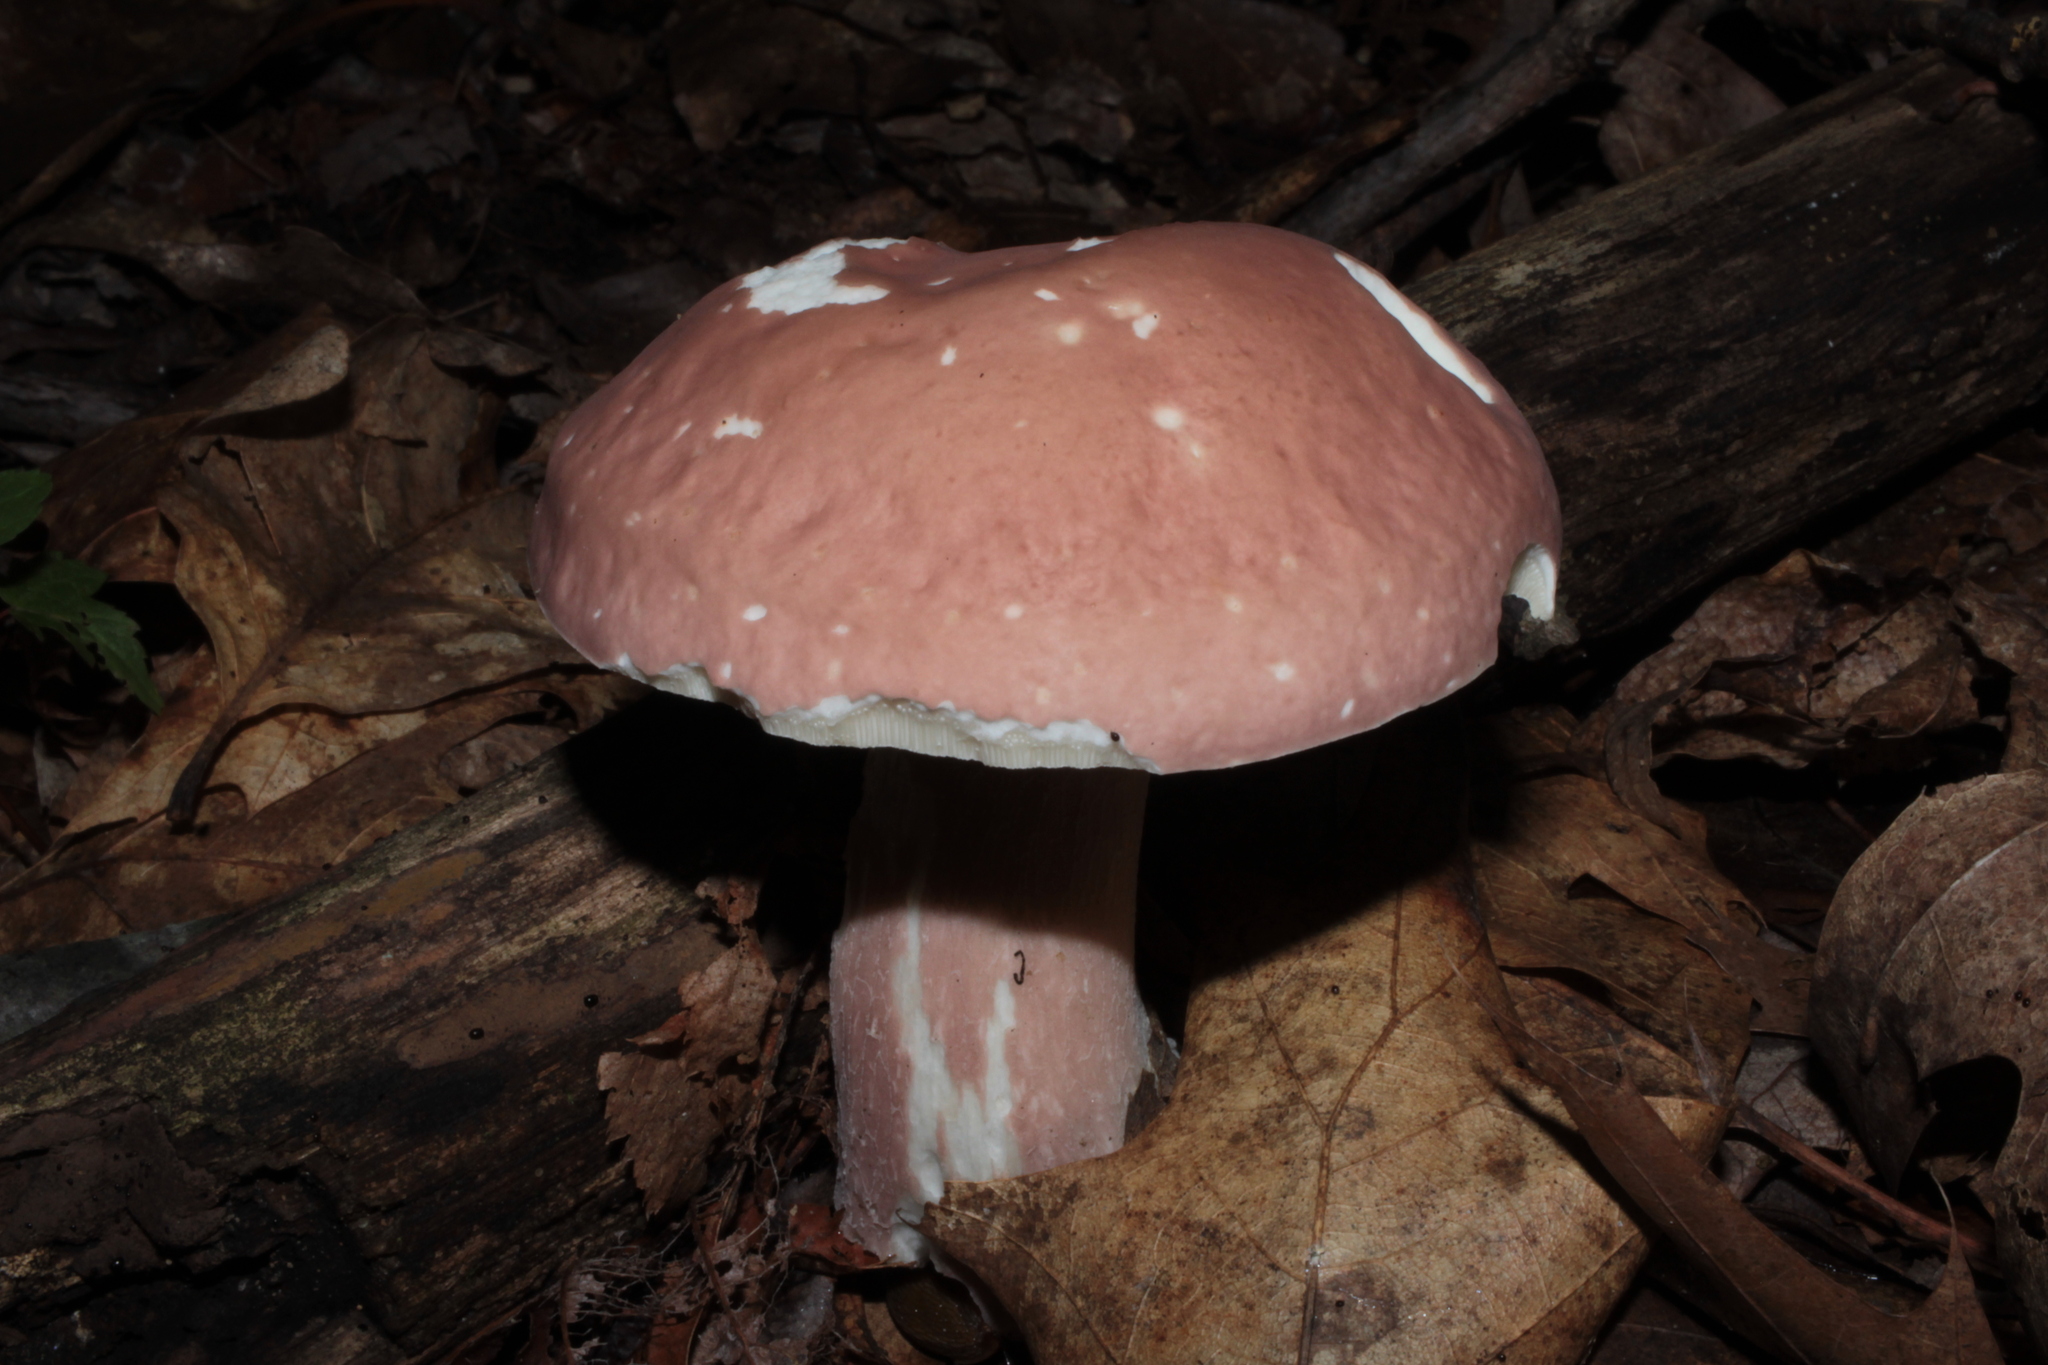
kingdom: Fungi
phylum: Basidiomycota
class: Agaricomycetes
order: Boletales
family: Boletaceae
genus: Xanthoconium
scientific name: Xanthoconium separans
